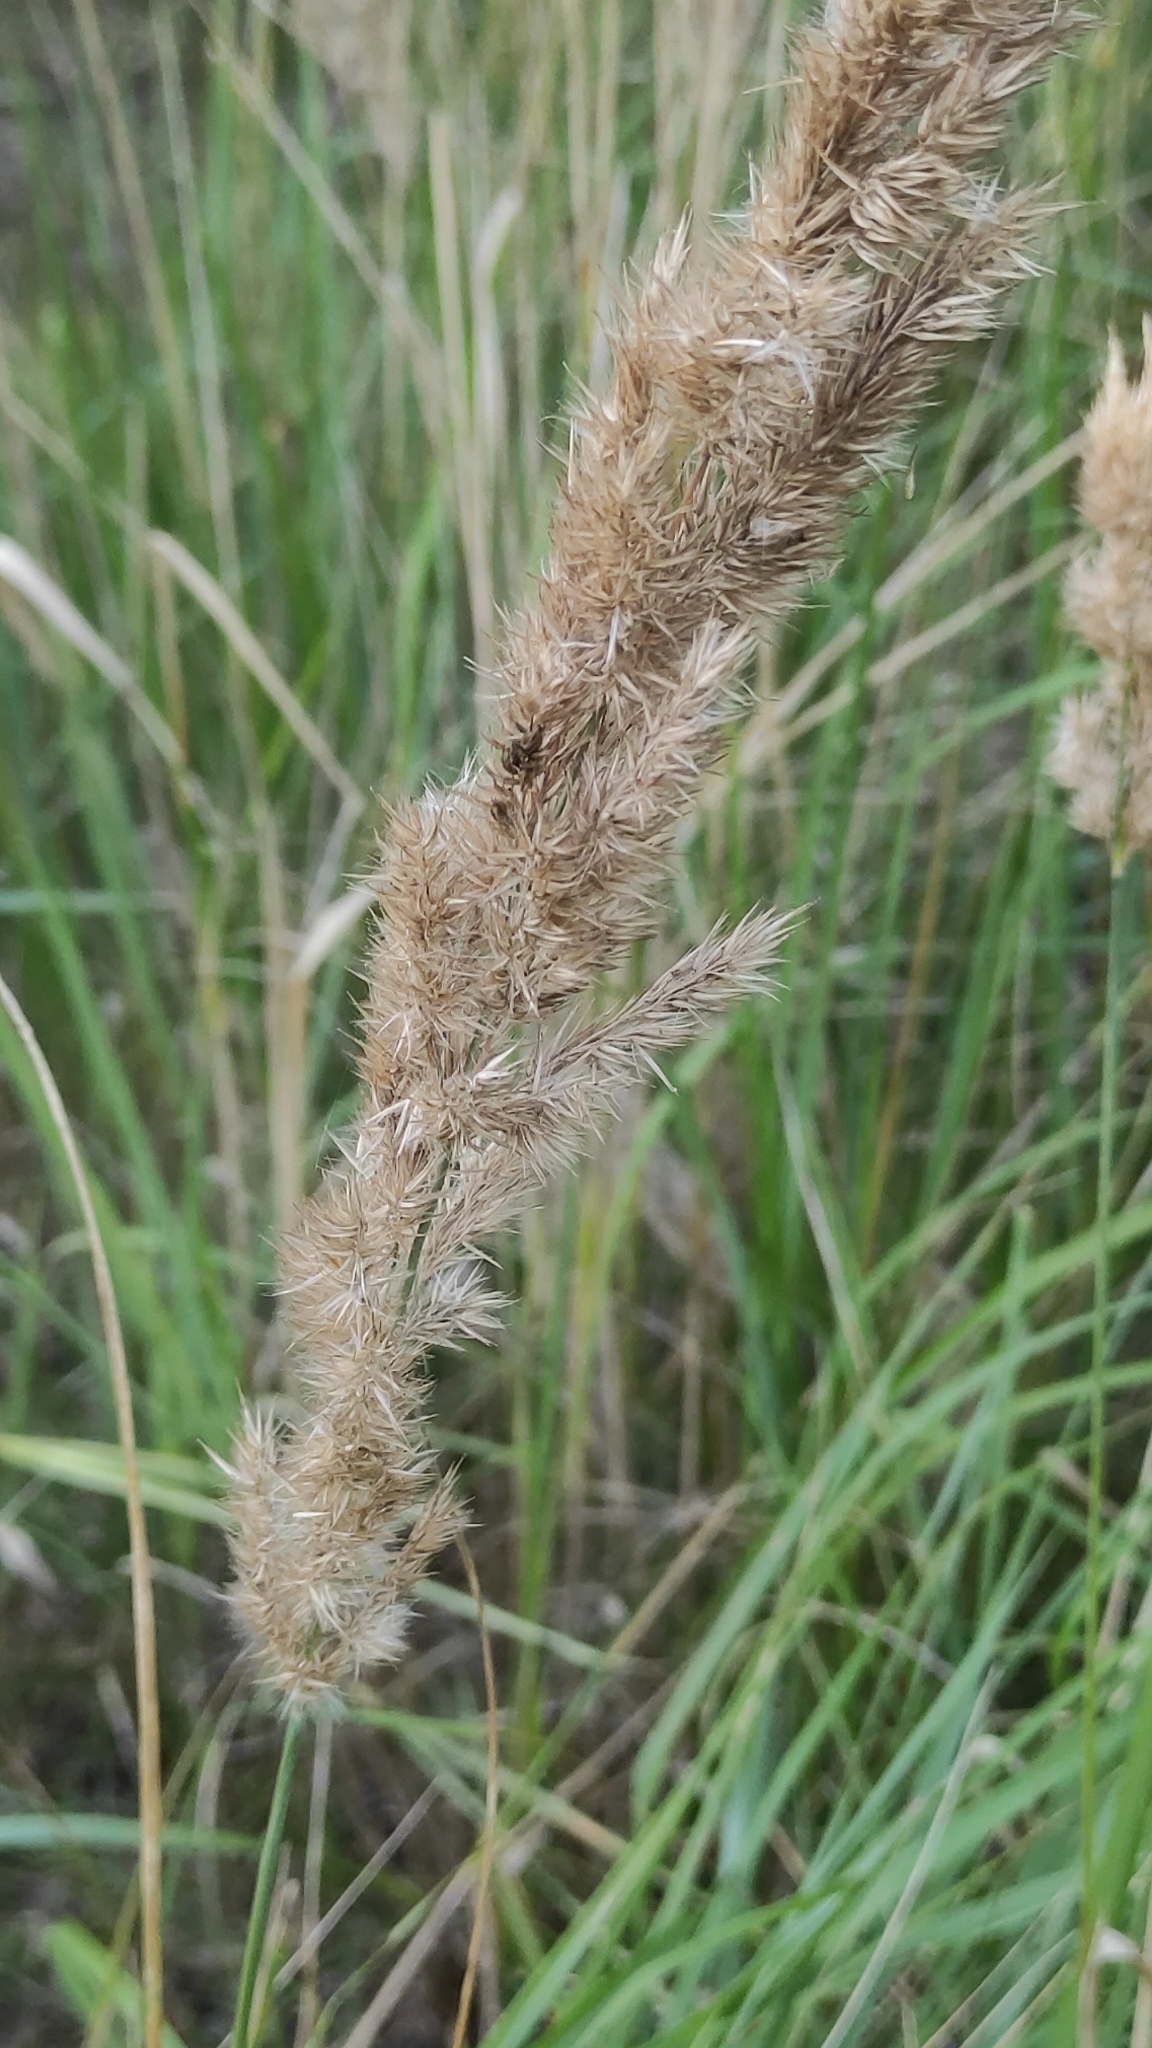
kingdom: Plantae
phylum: Tracheophyta
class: Liliopsida
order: Poales
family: Poaceae
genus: Calamagrostis
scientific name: Calamagrostis epigejos
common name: Wood small-reed
